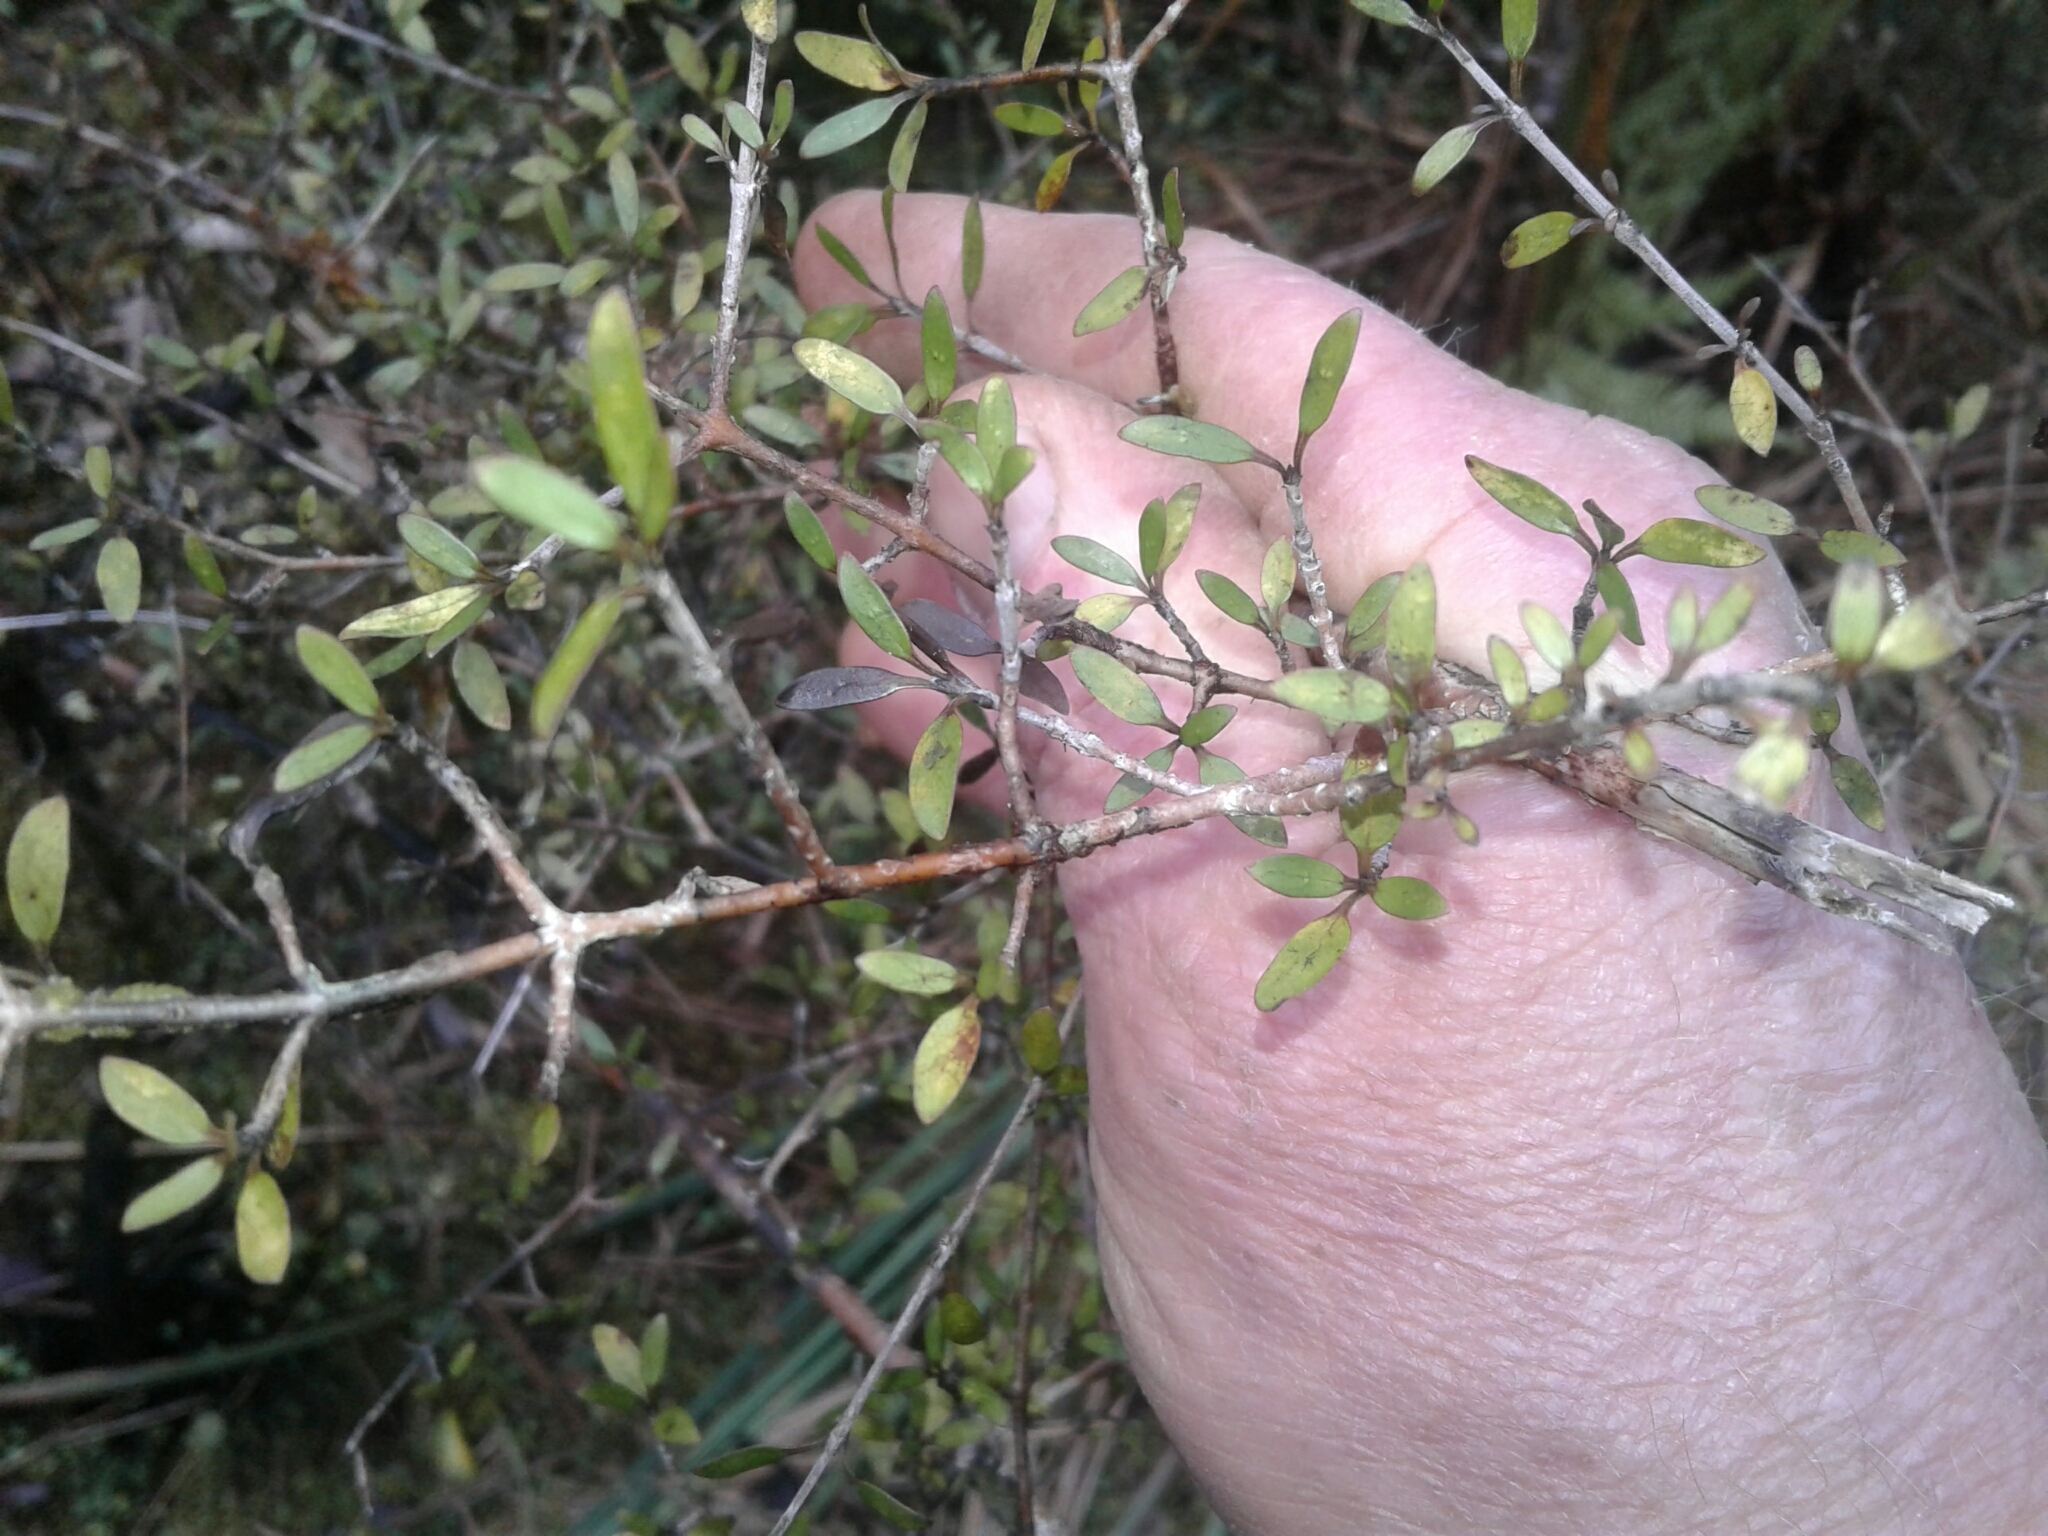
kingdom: Plantae
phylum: Tracheophyta
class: Magnoliopsida
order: Gentianales
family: Rubiaceae
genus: Coprosma
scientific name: Coprosma propinqua
